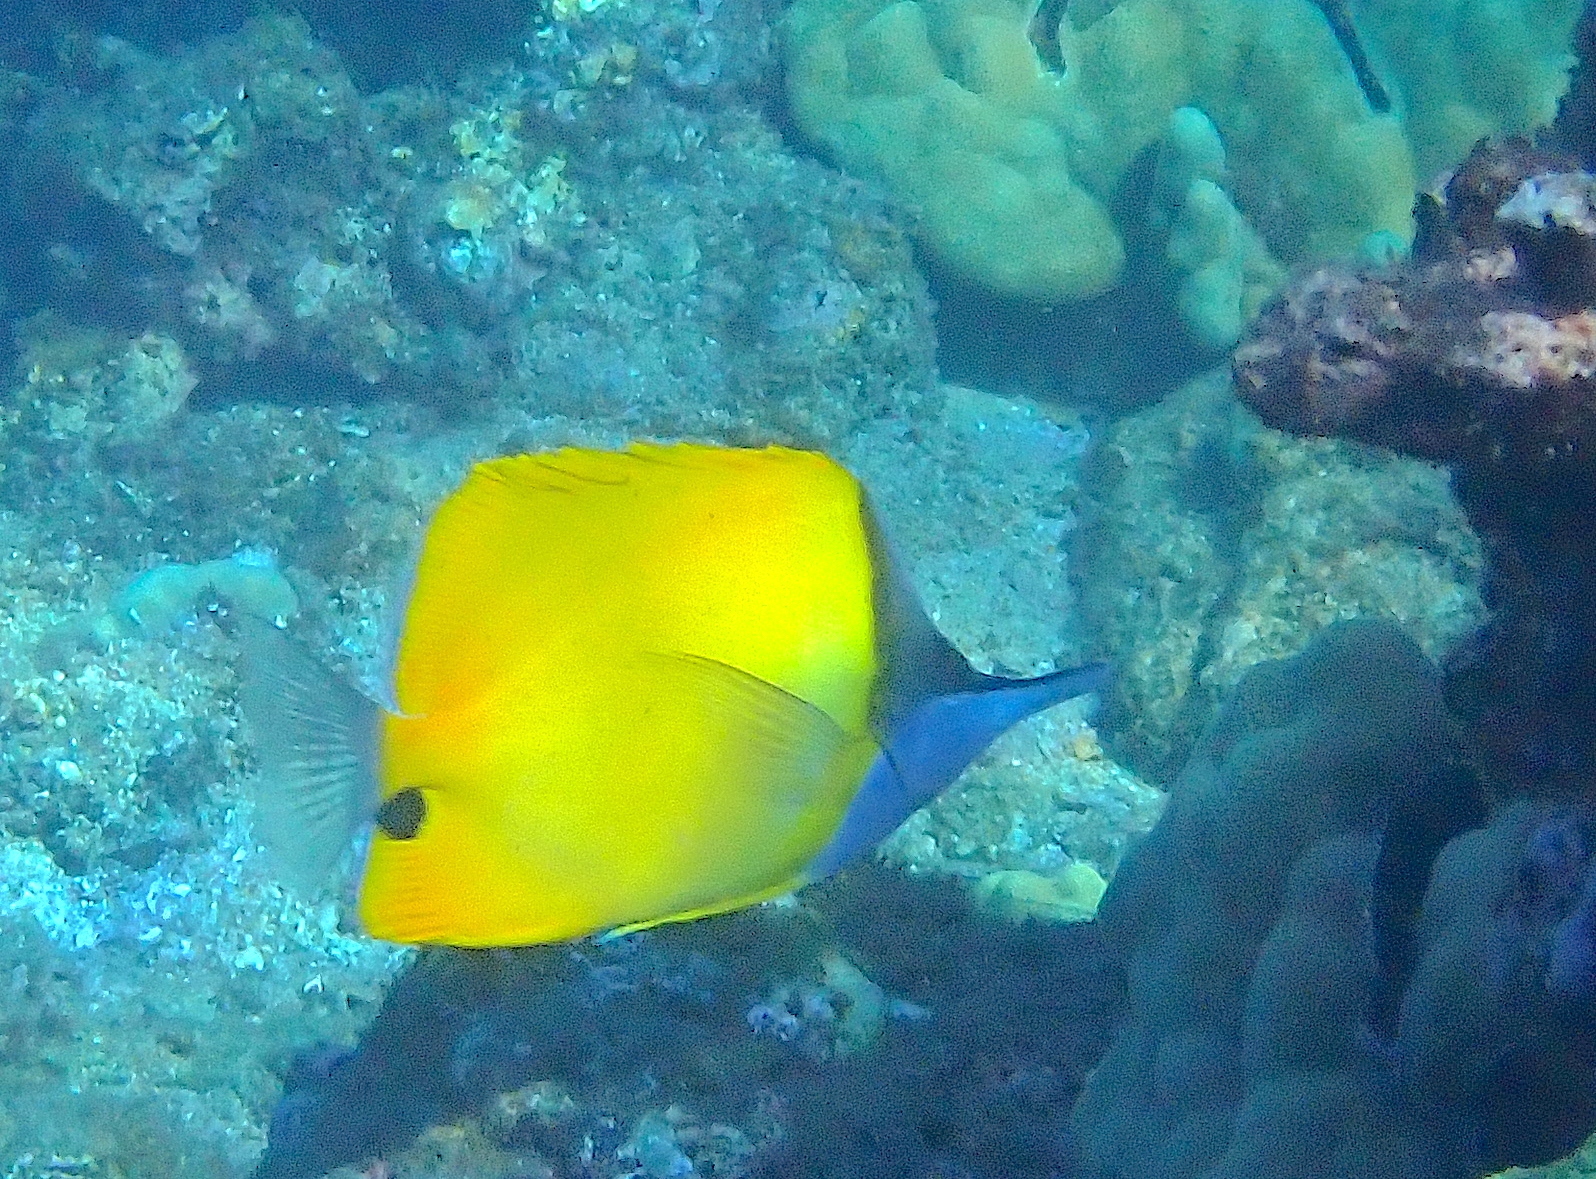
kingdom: Animalia
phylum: Chordata
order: Perciformes
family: Chaetodontidae
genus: Forcipiger
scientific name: Forcipiger flavissimus
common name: Forcepsfish
